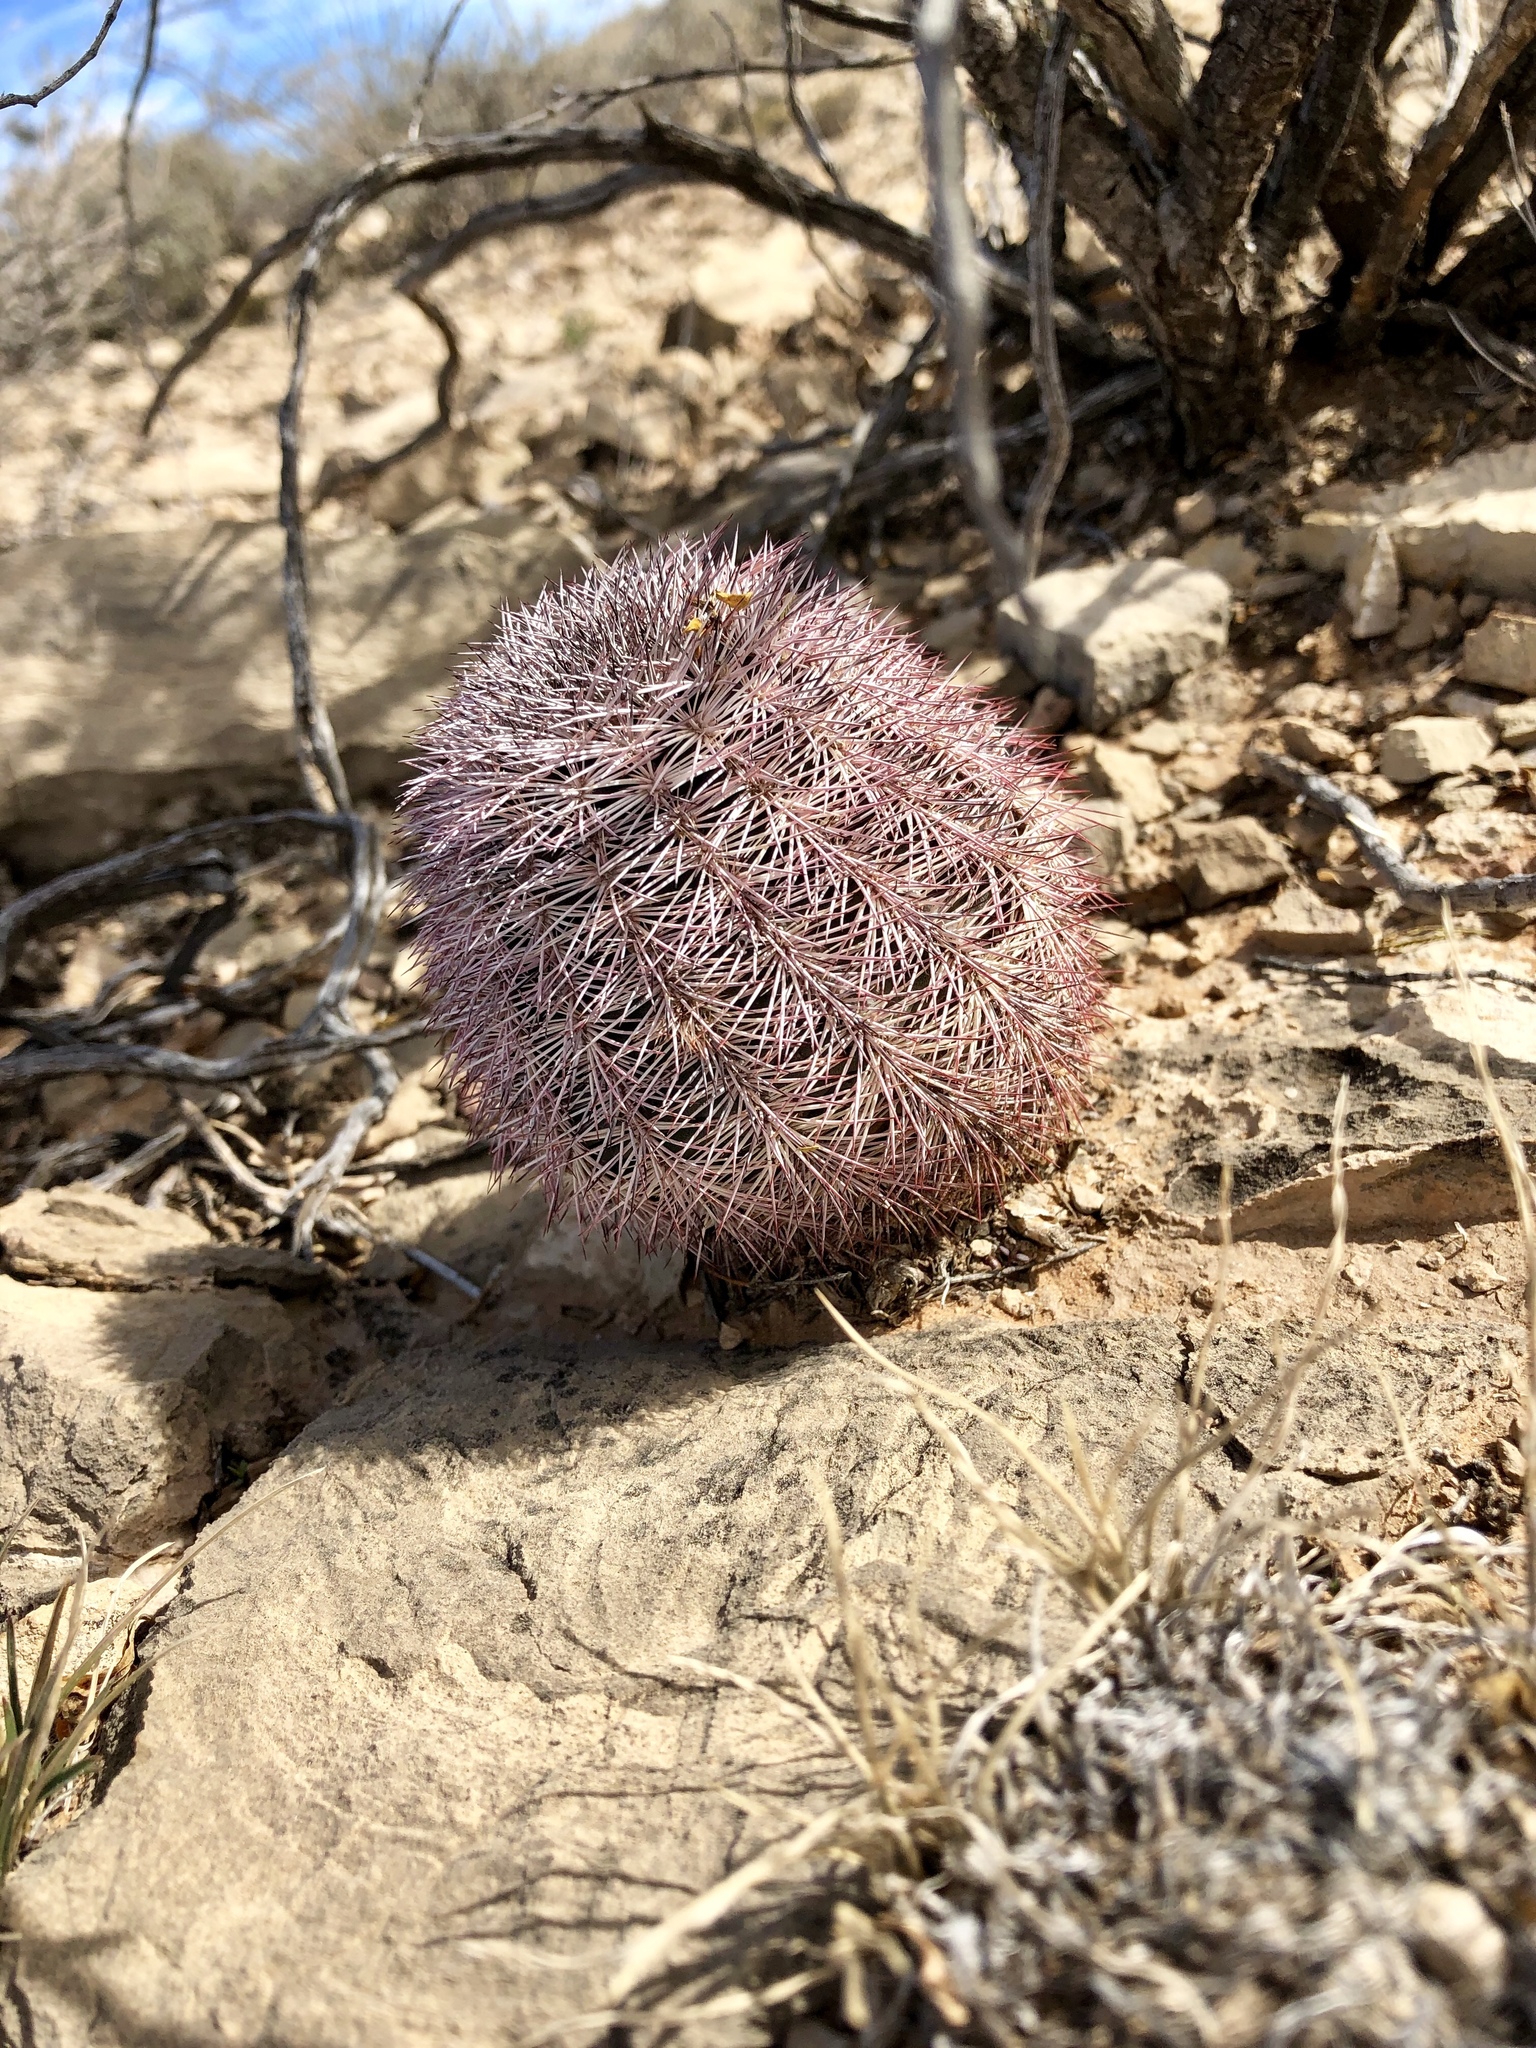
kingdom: Plantae
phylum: Tracheophyta
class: Magnoliopsida
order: Caryophyllales
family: Cactaceae
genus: Echinocereus
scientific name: Echinocereus dasyacanthus
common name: Spiny hedgehog cactus
